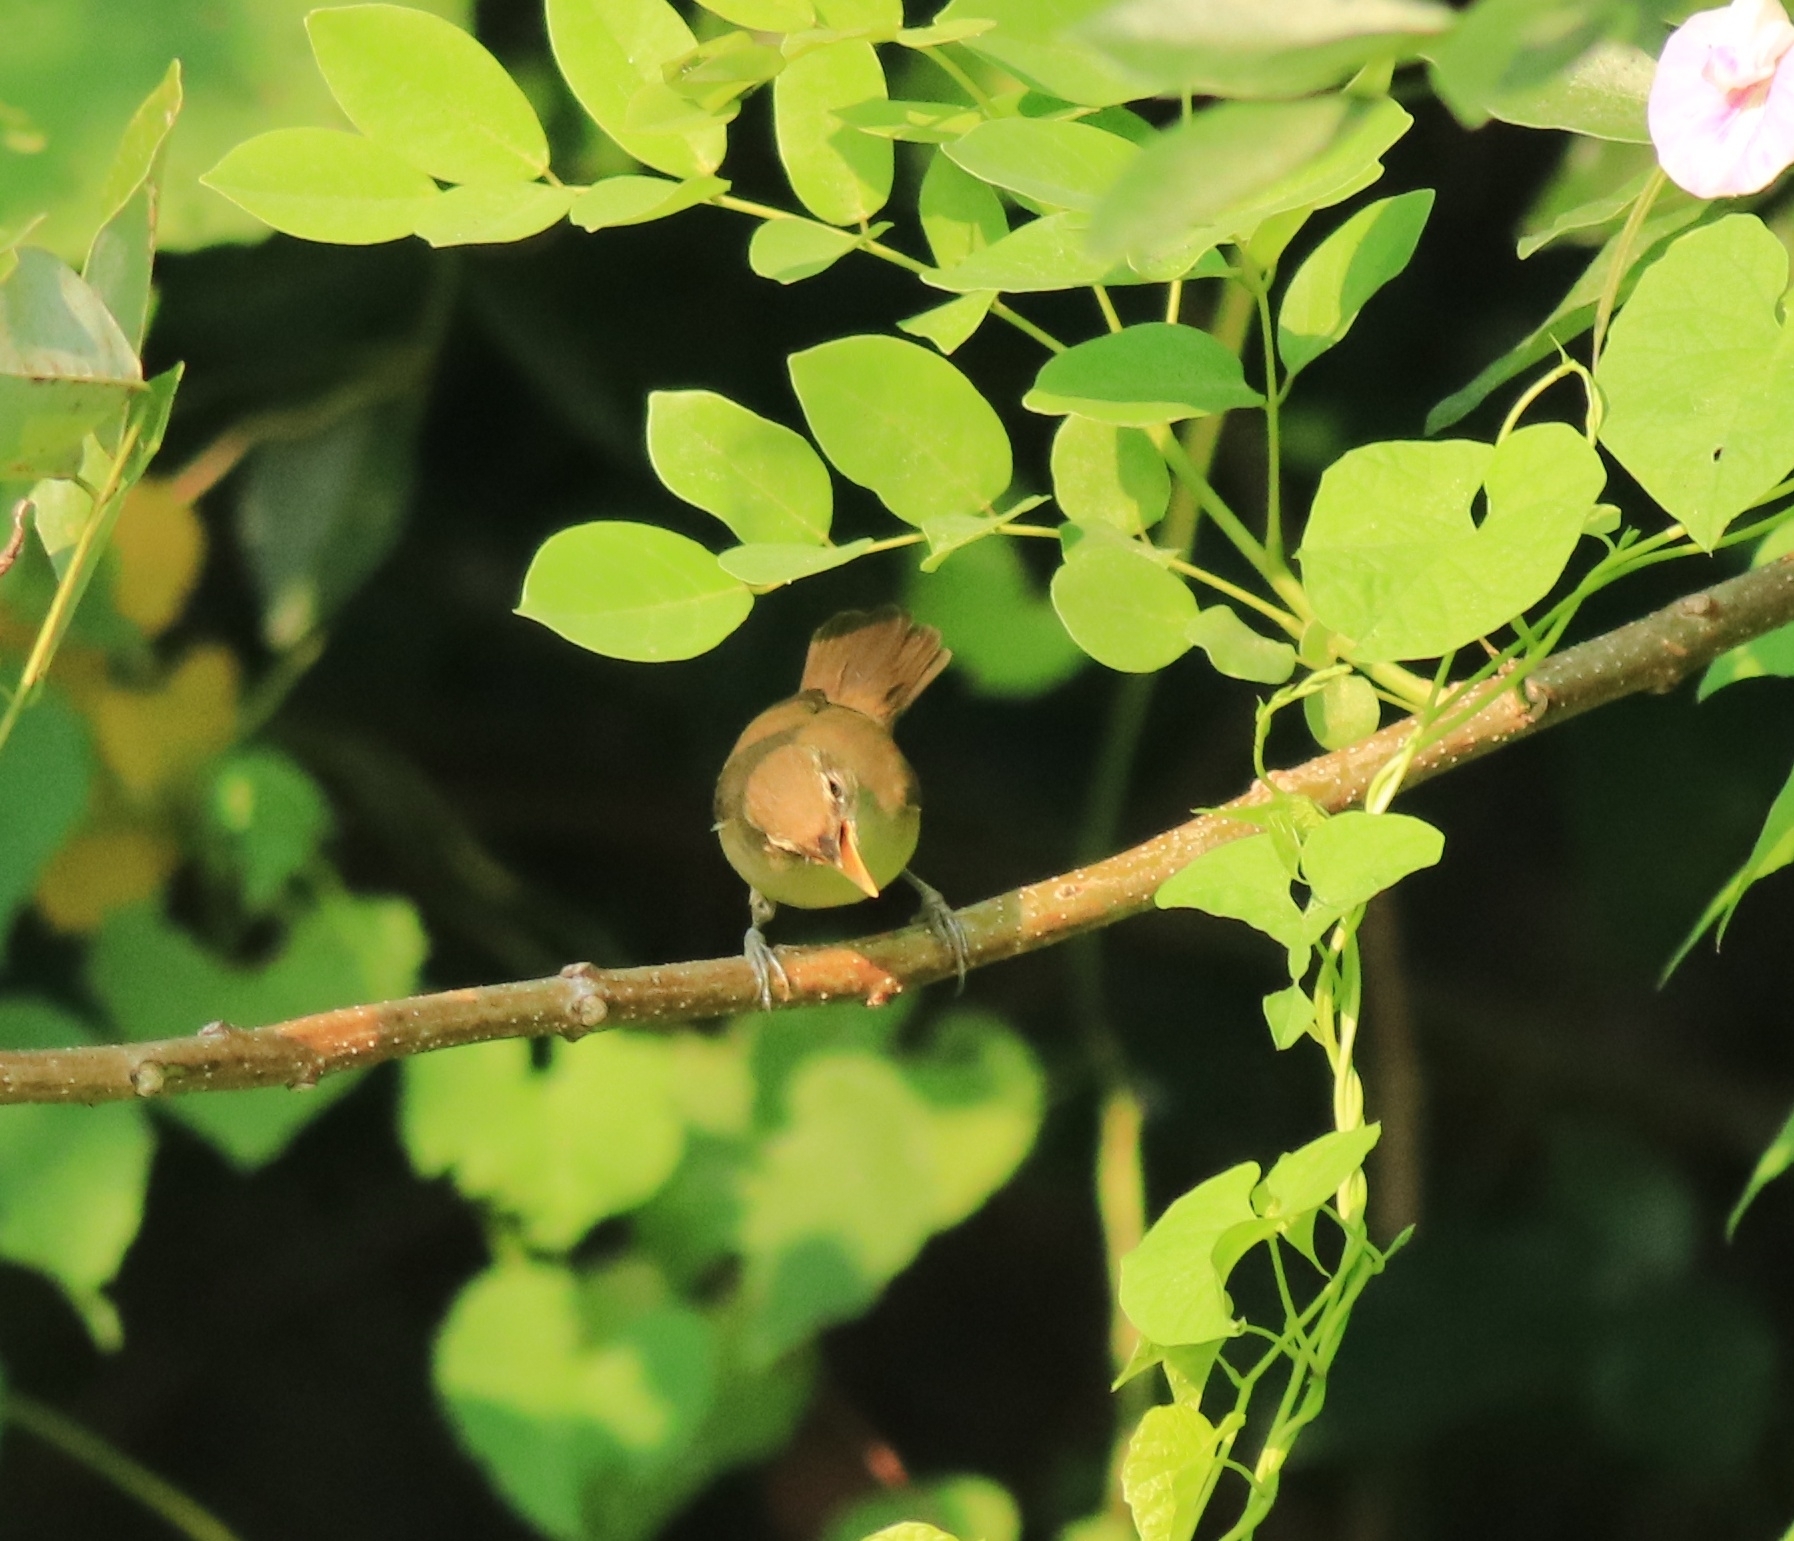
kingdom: Animalia
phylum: Chordata
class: Aves
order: Passeriformes
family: Acrocephalidae
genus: Acrocephalus
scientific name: Acrocephalus dumetorum
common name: Blyth's reed warbler
